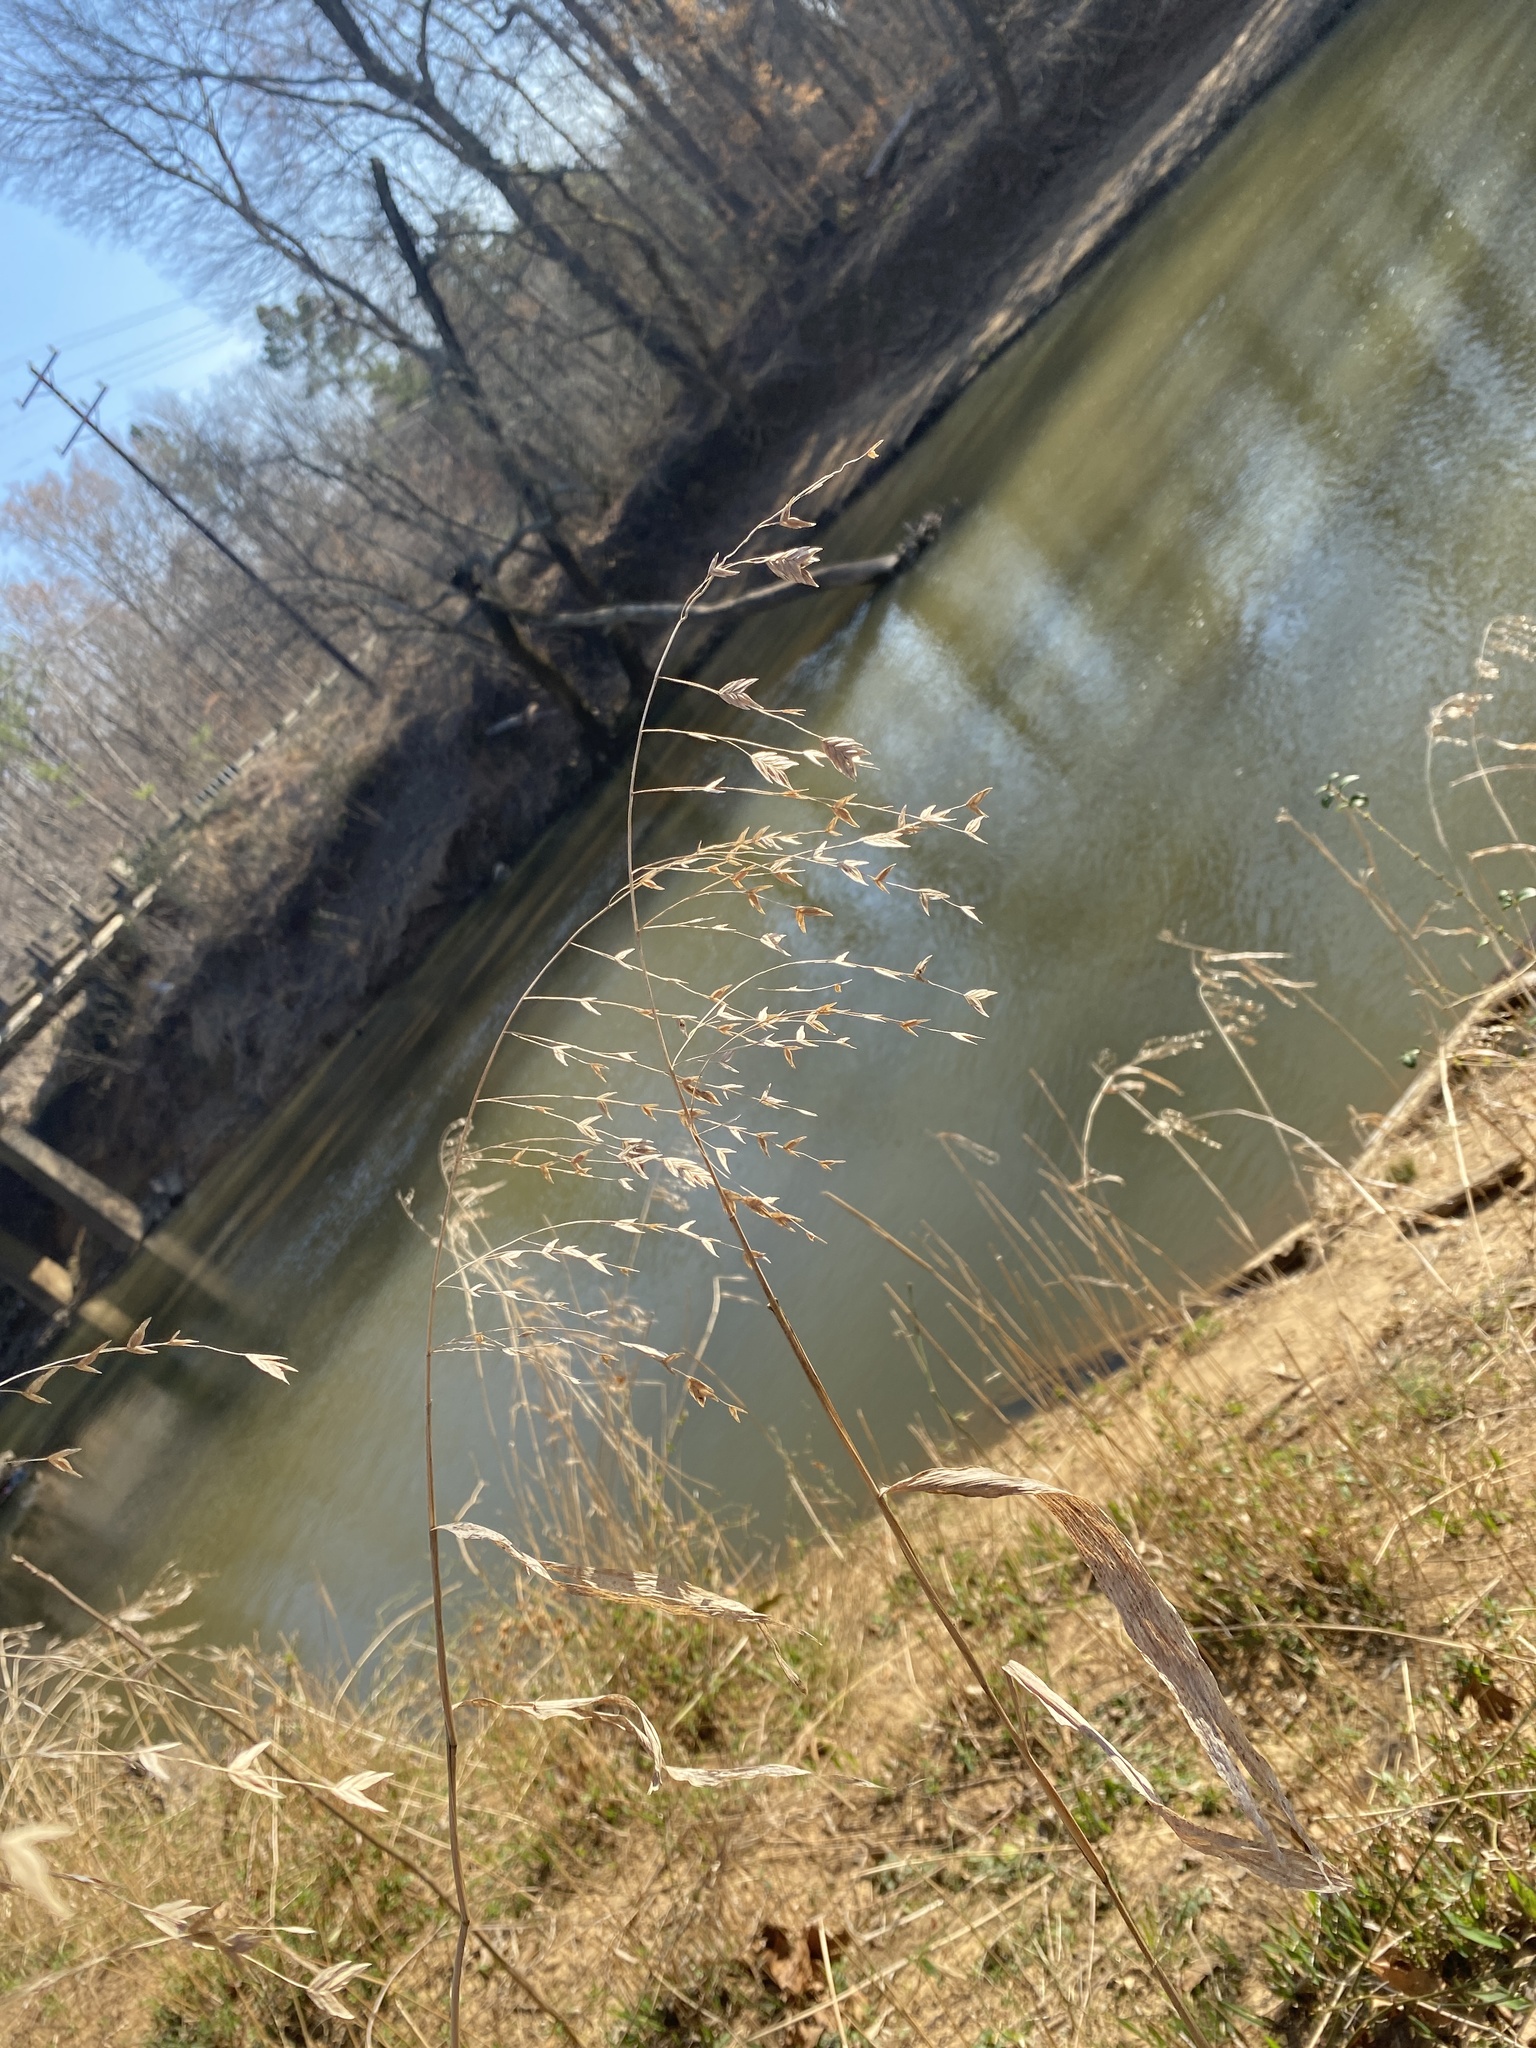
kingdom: Plantae
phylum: Tracheophyta
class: Liliopsida
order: Poales
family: Poaceae
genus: Chasmanthium
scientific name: Chasmanthium latifolium
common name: Broad-leaved chasmanthium
